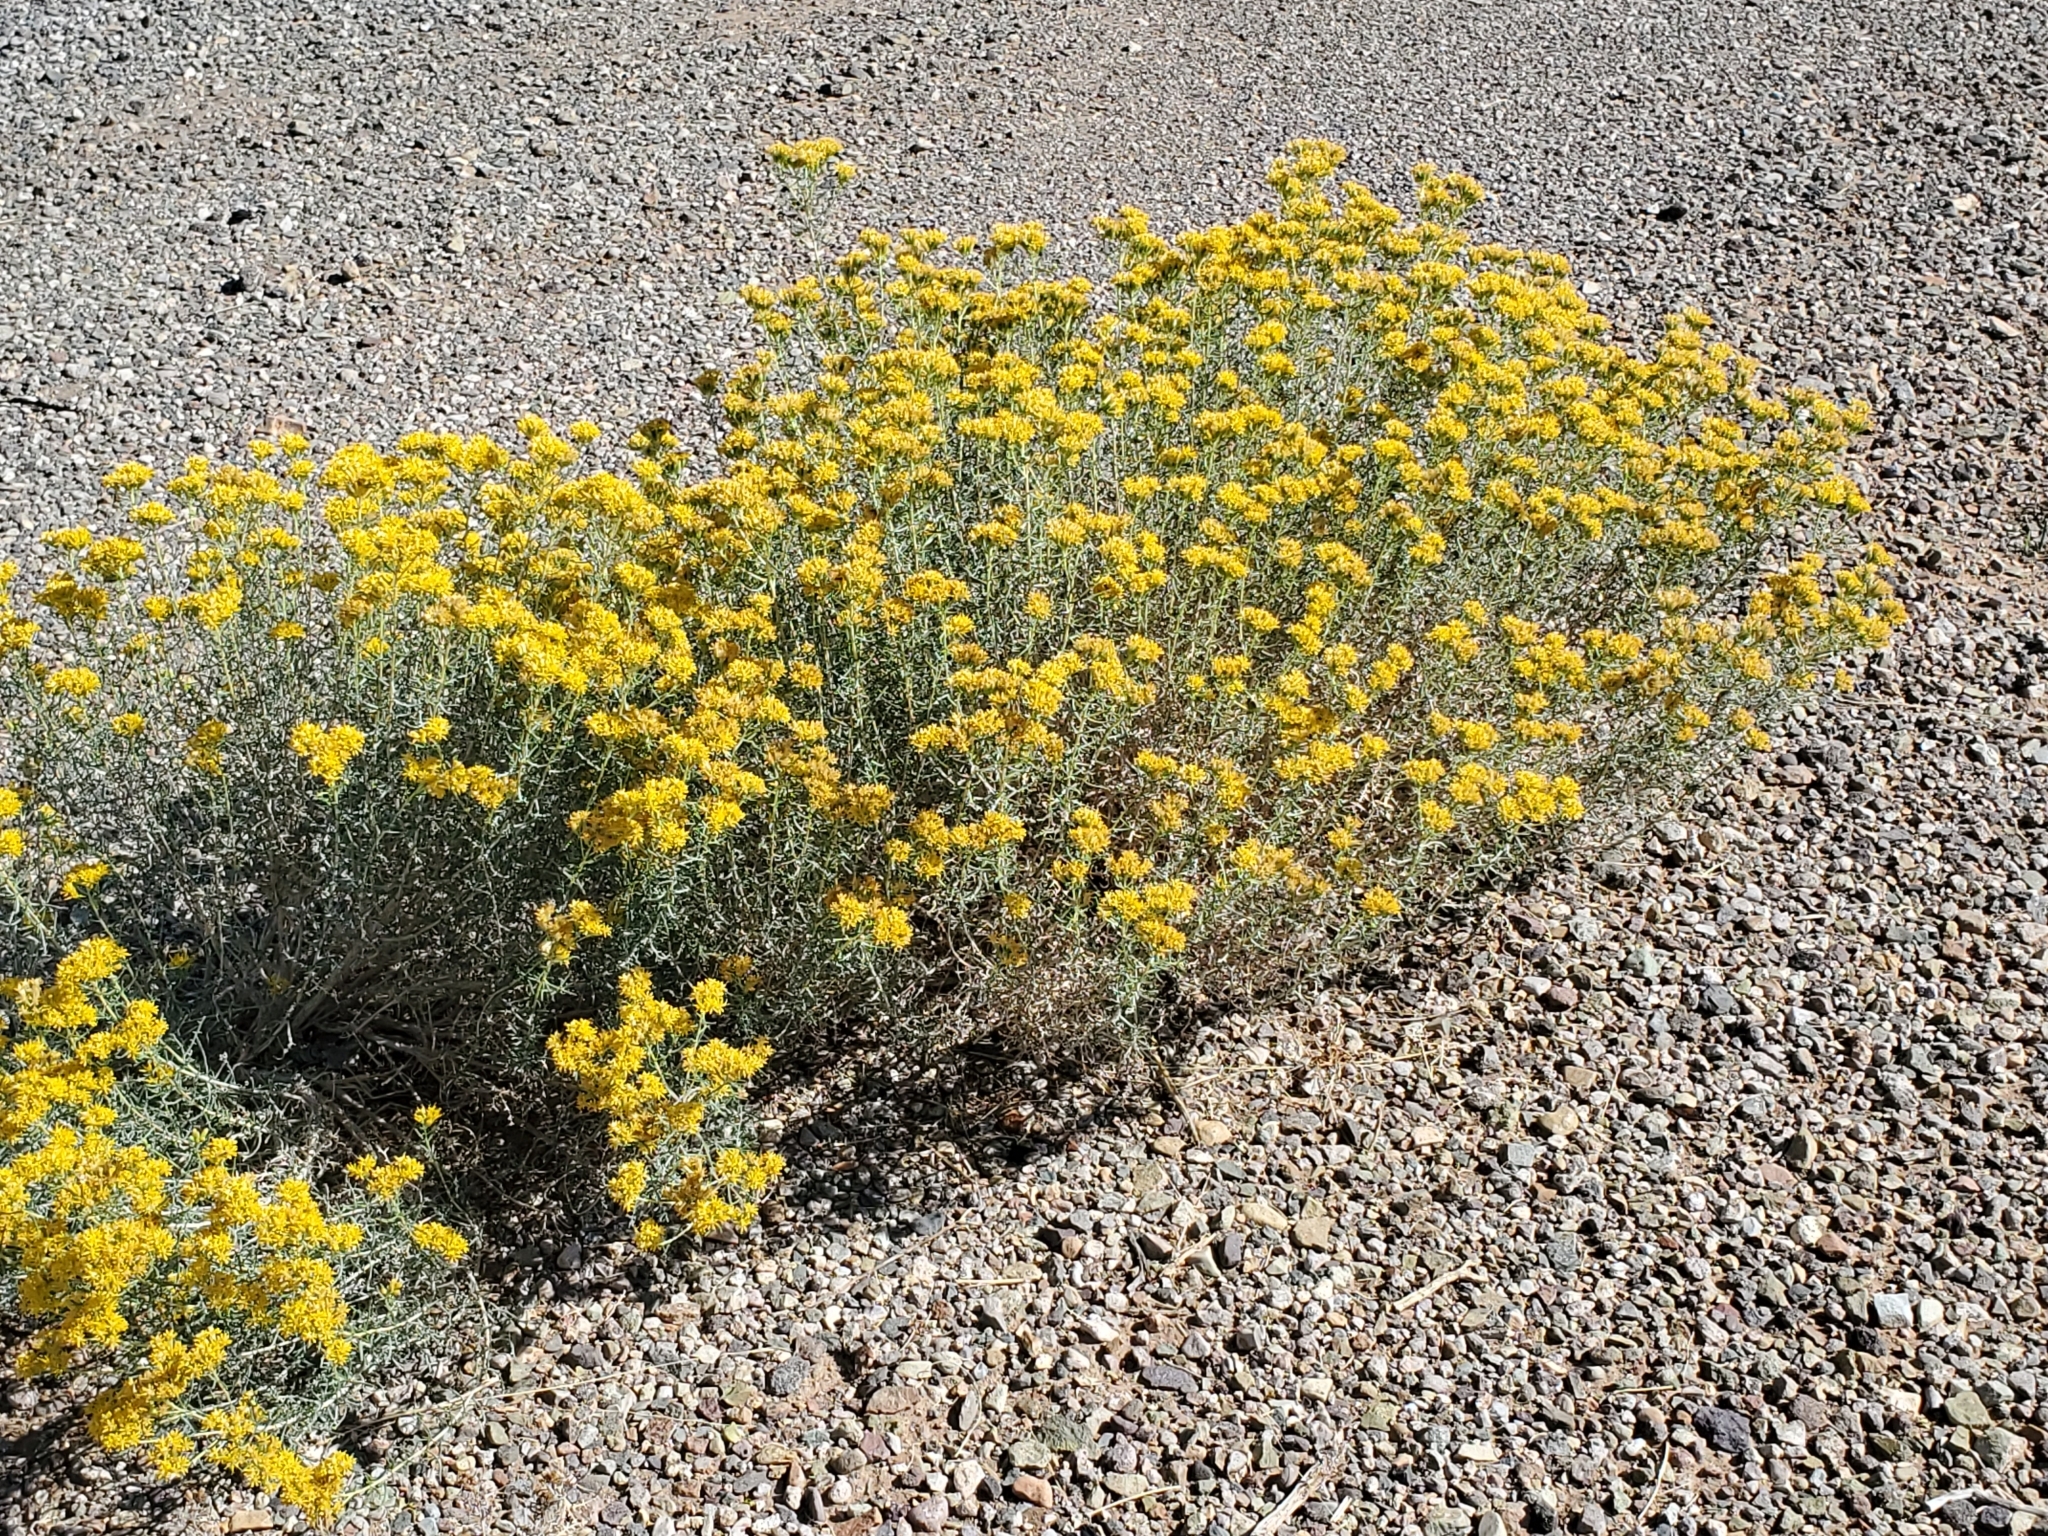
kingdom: Plantae
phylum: Tracheophyta
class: Magnoliopsida
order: Asterales
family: Asteraceae
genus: Isocoma
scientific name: Isocoma tenuisecta
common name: Burroweed
